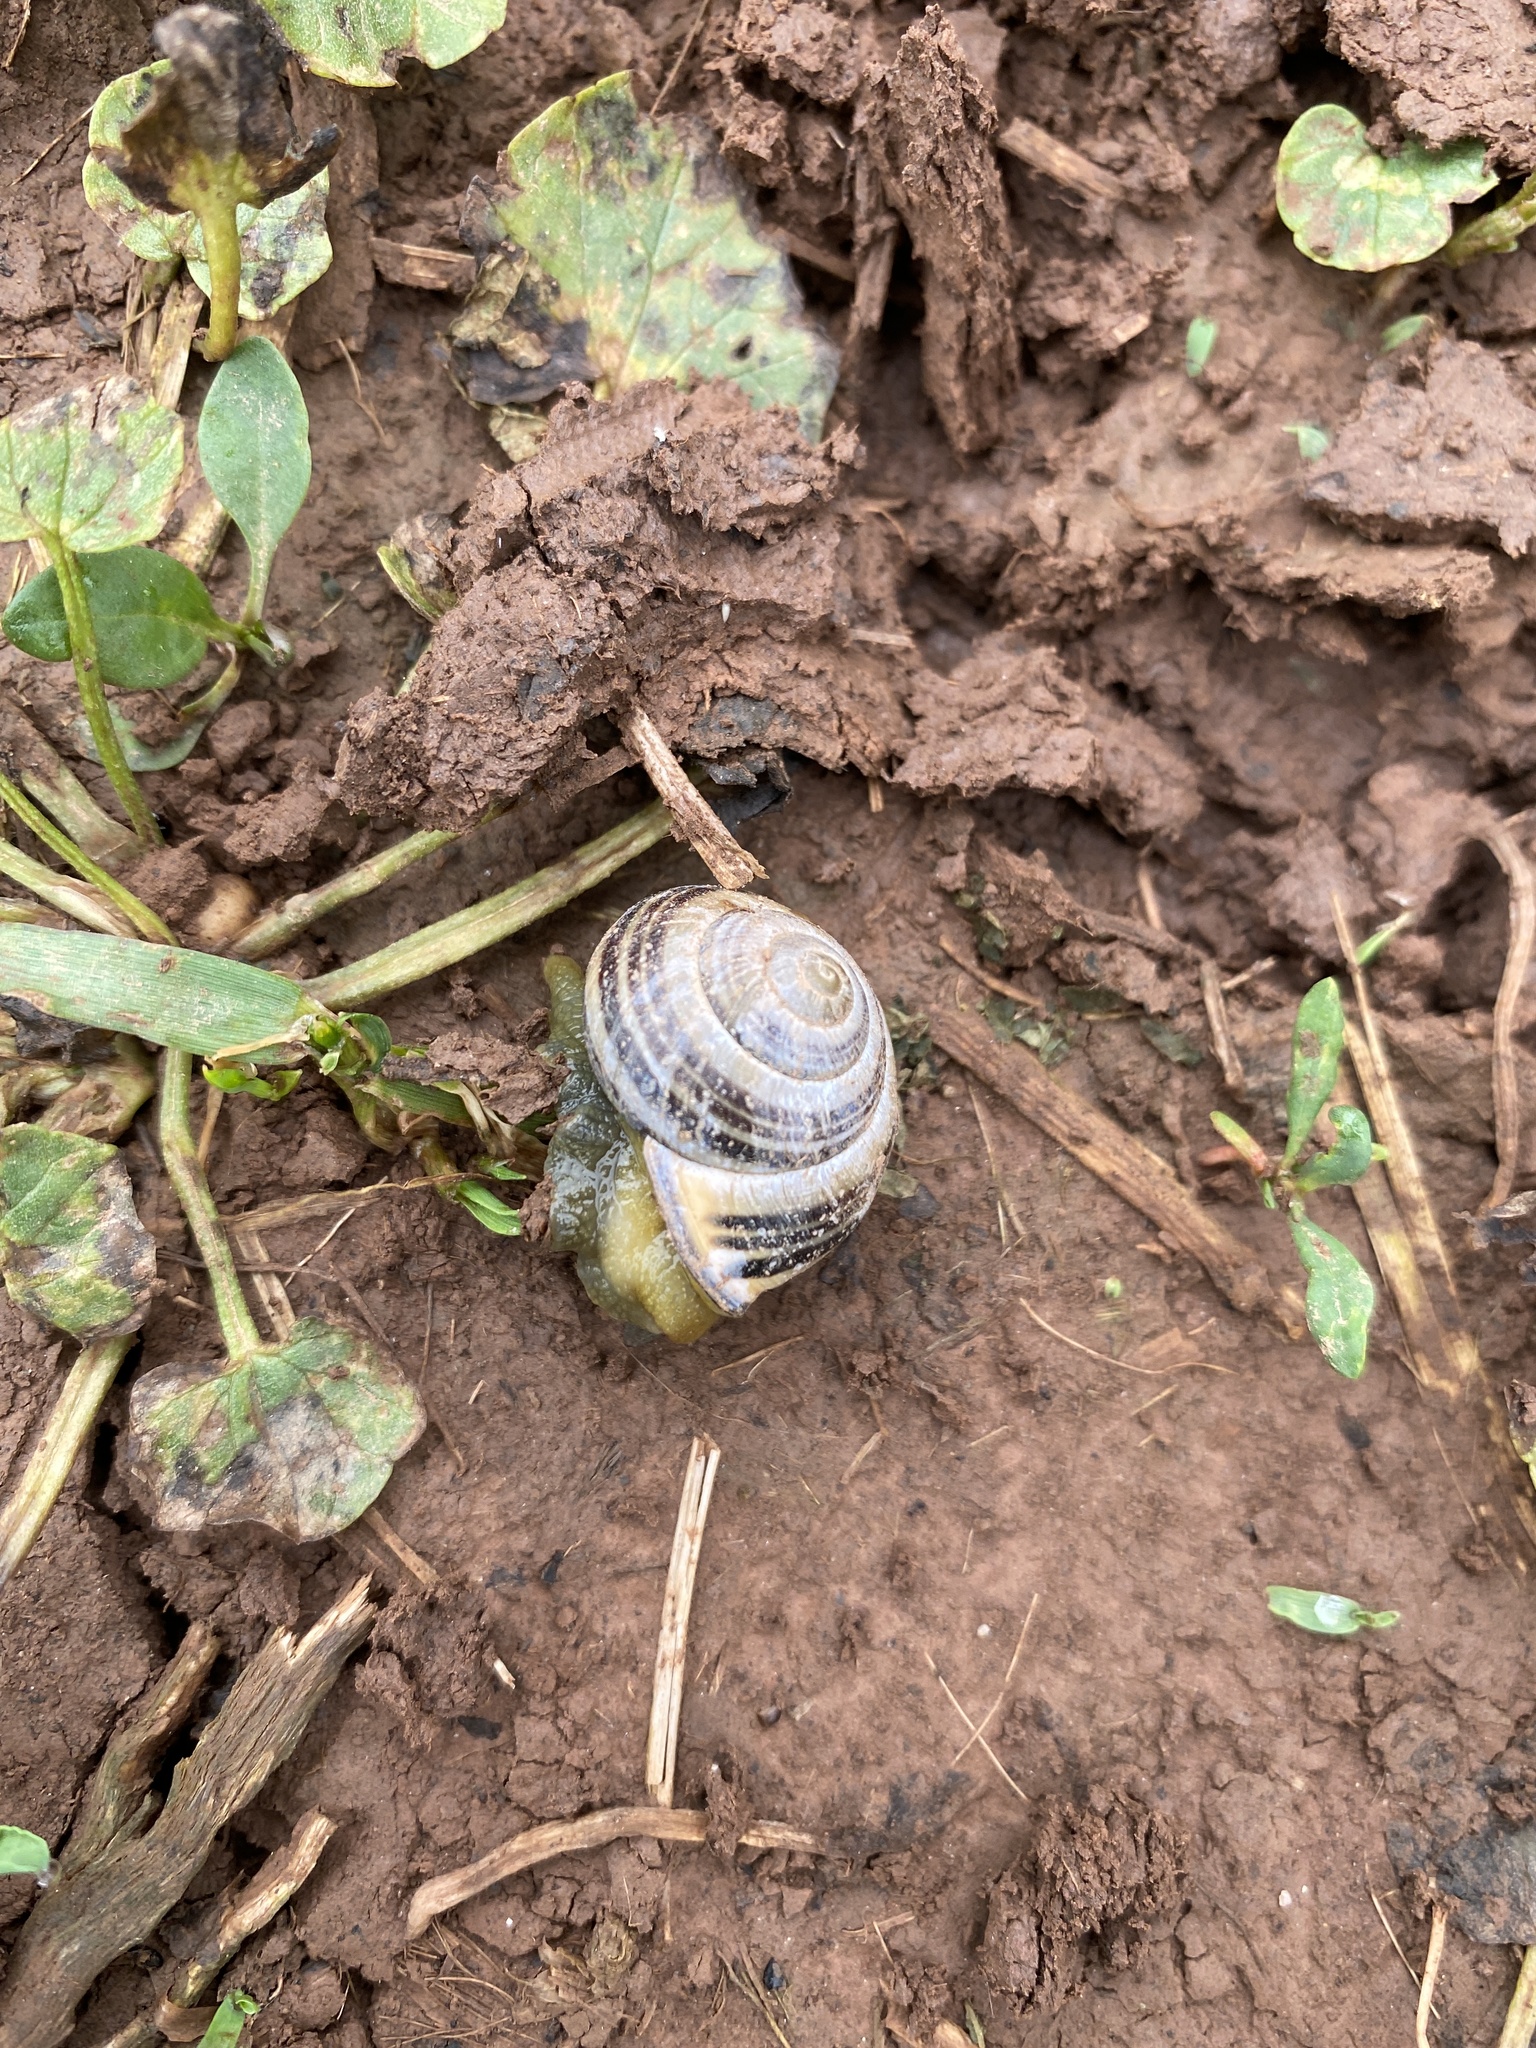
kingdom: Animalia
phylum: Mollusca
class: Gastropoda
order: Stylommatophora
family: Helicidae
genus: Cepaea
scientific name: Cepaea nemoralis
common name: Grovesnail
